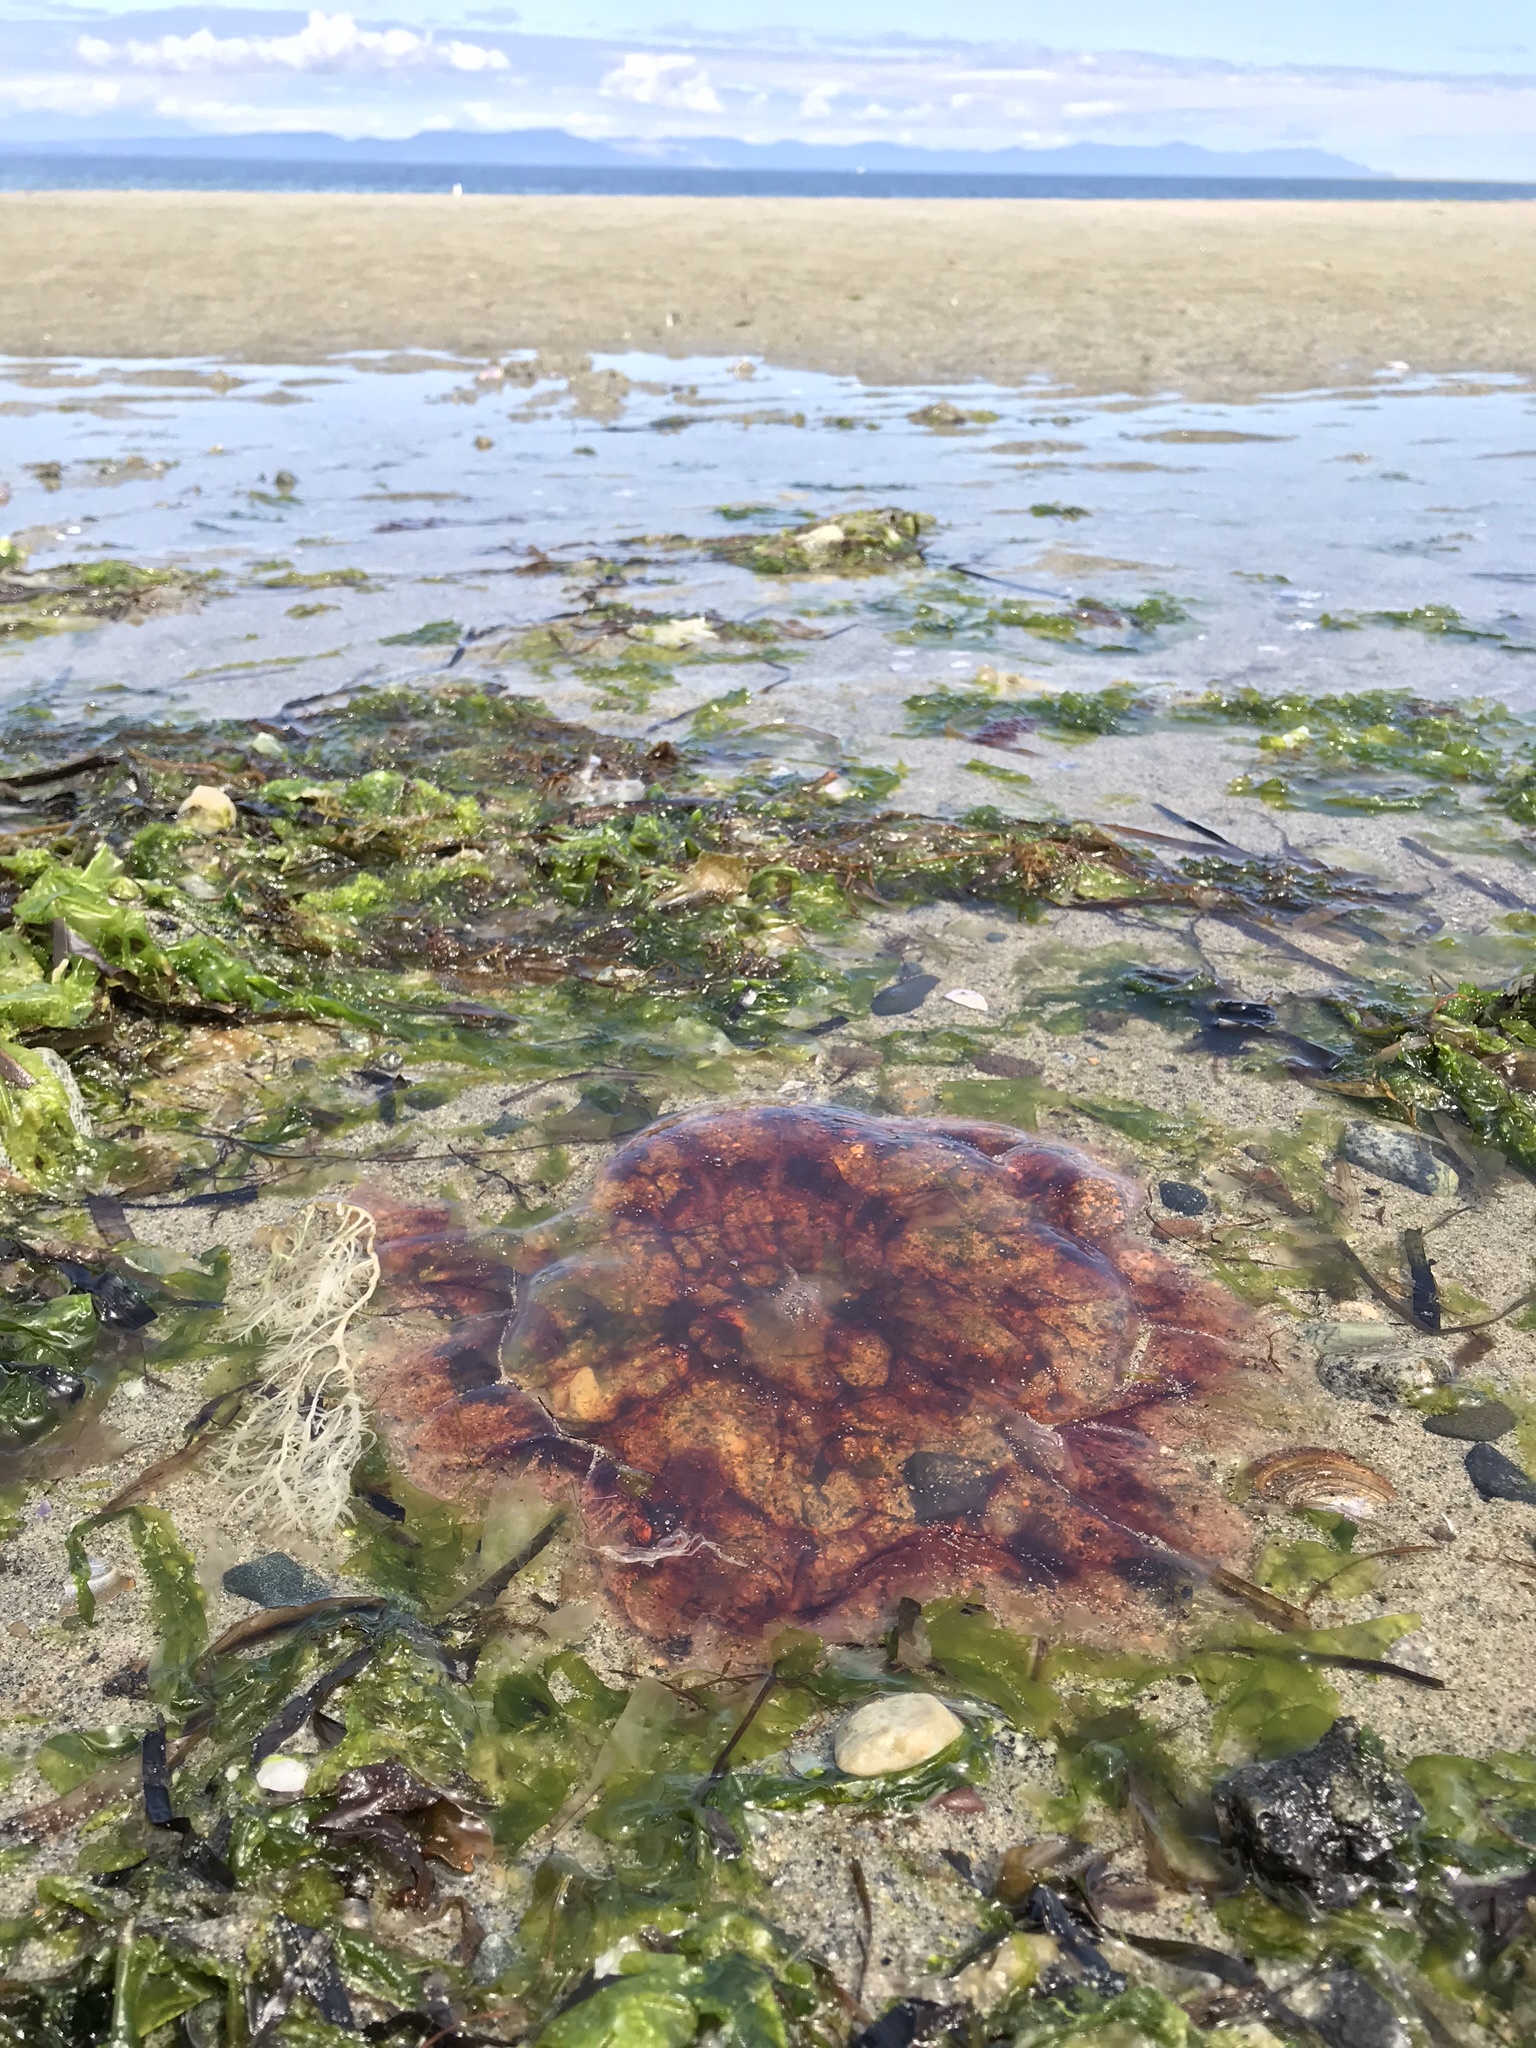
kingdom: Animalia
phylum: Cnidaria
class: Scyphozoa
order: Semaeostomeae
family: Cyaneidae
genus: Cyanea
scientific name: Cyanea ferruginea
